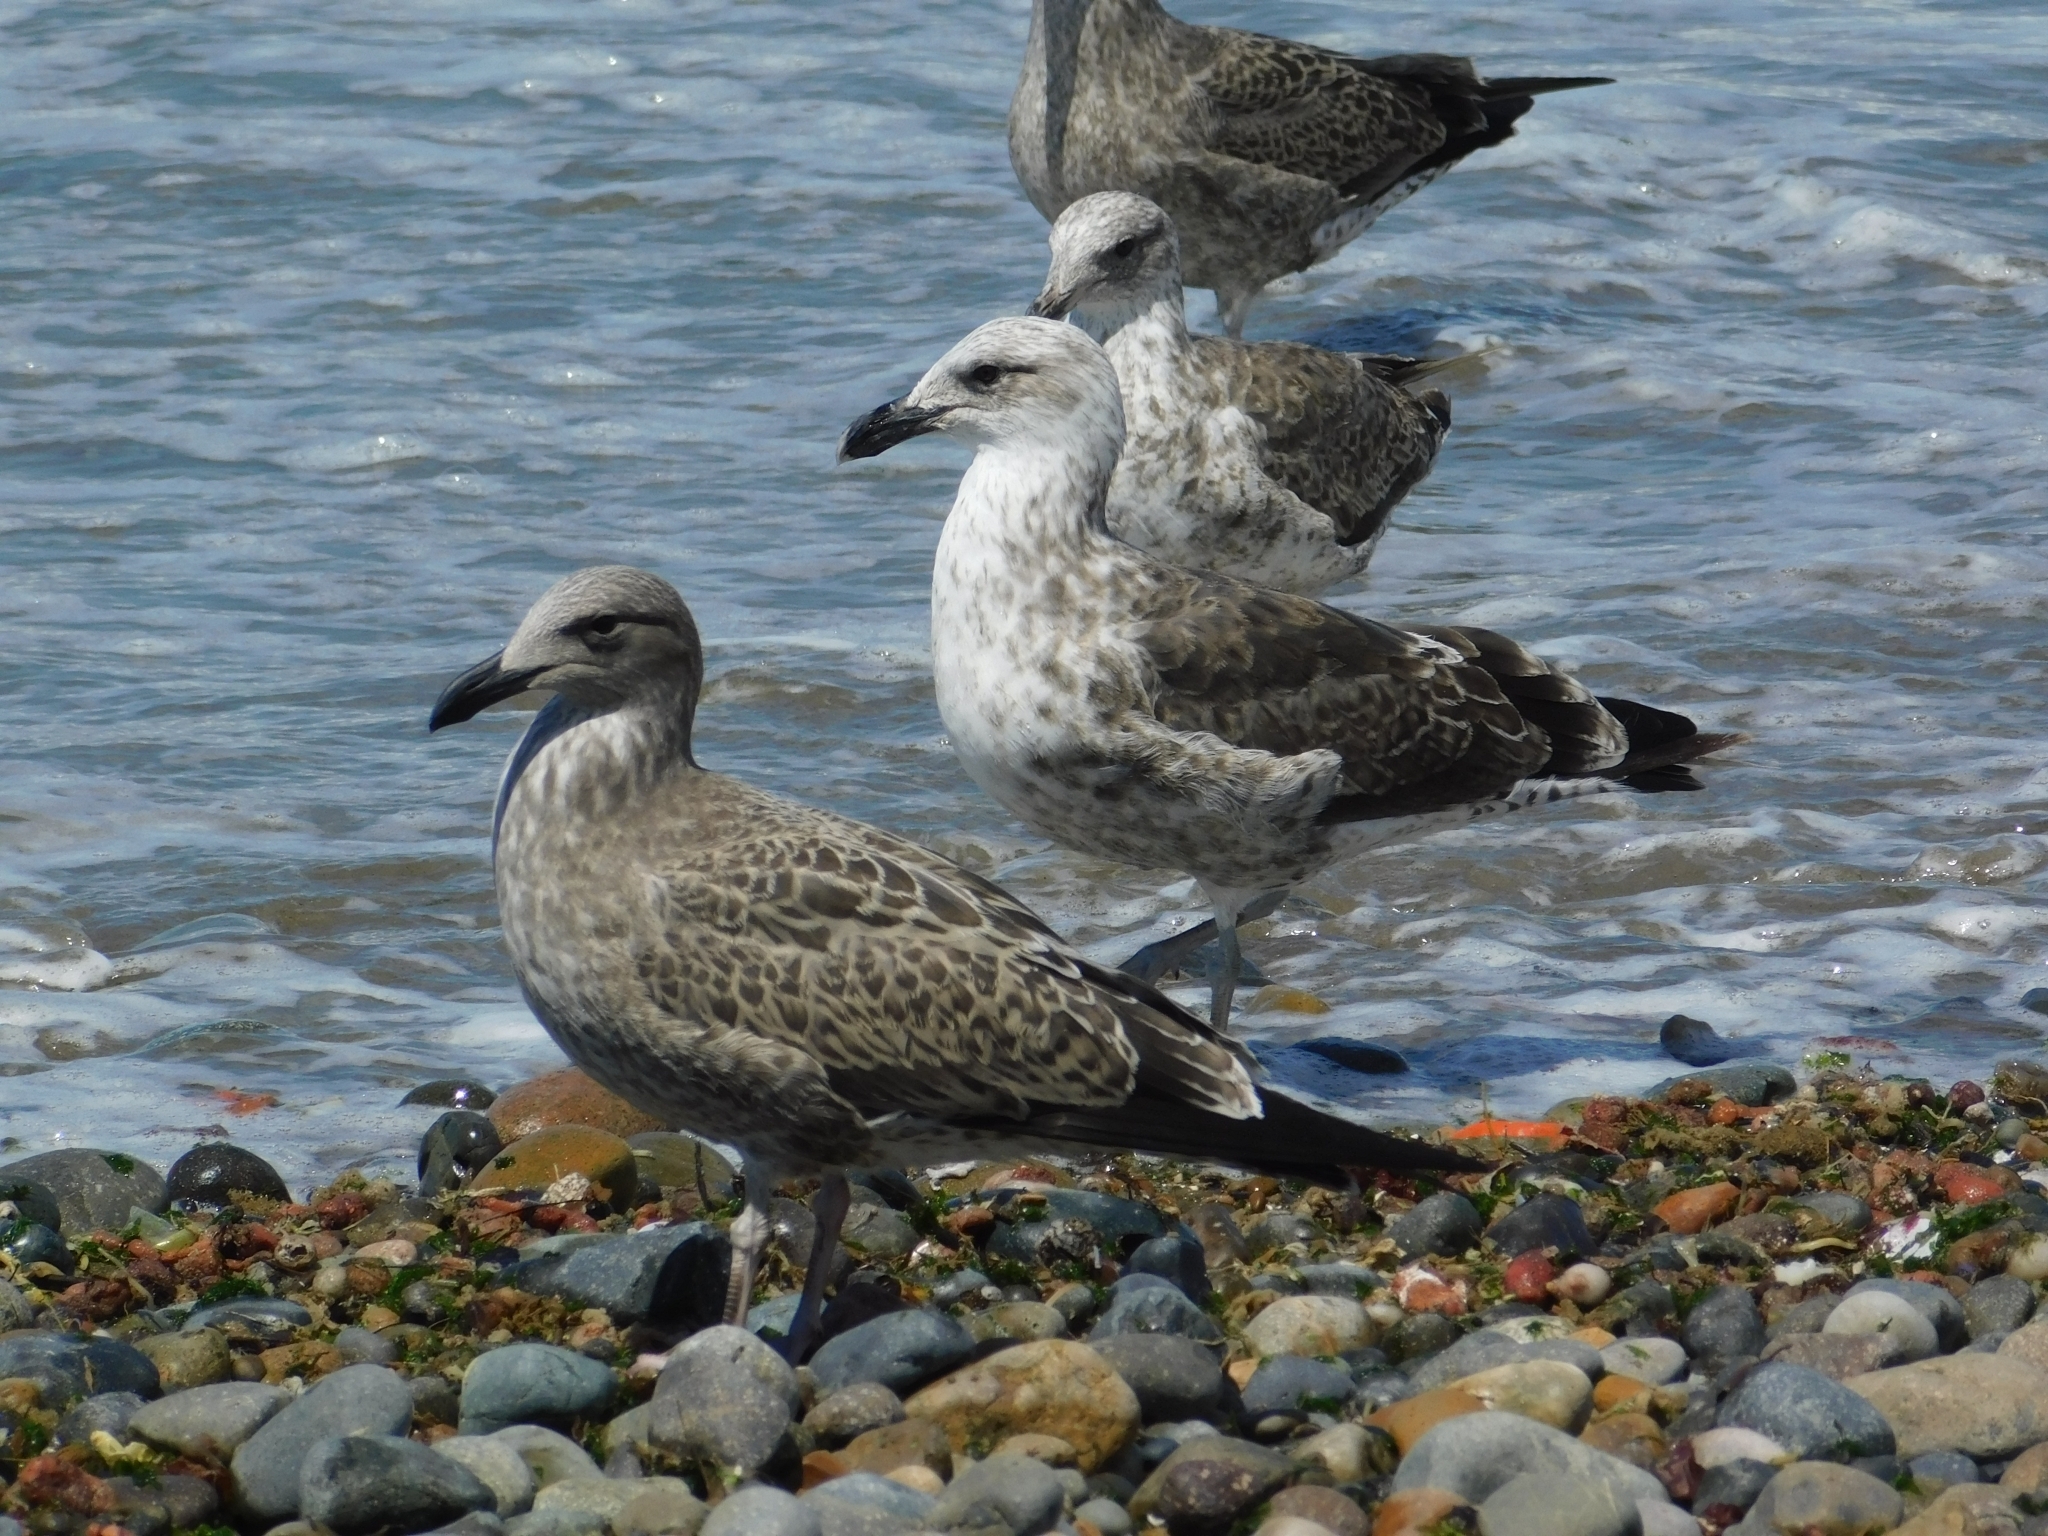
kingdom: Animalia
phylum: Chordata
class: Aves
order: Charadriiformes
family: Laridae
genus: Larus
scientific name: Larus dominicanus
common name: Kelp gull
